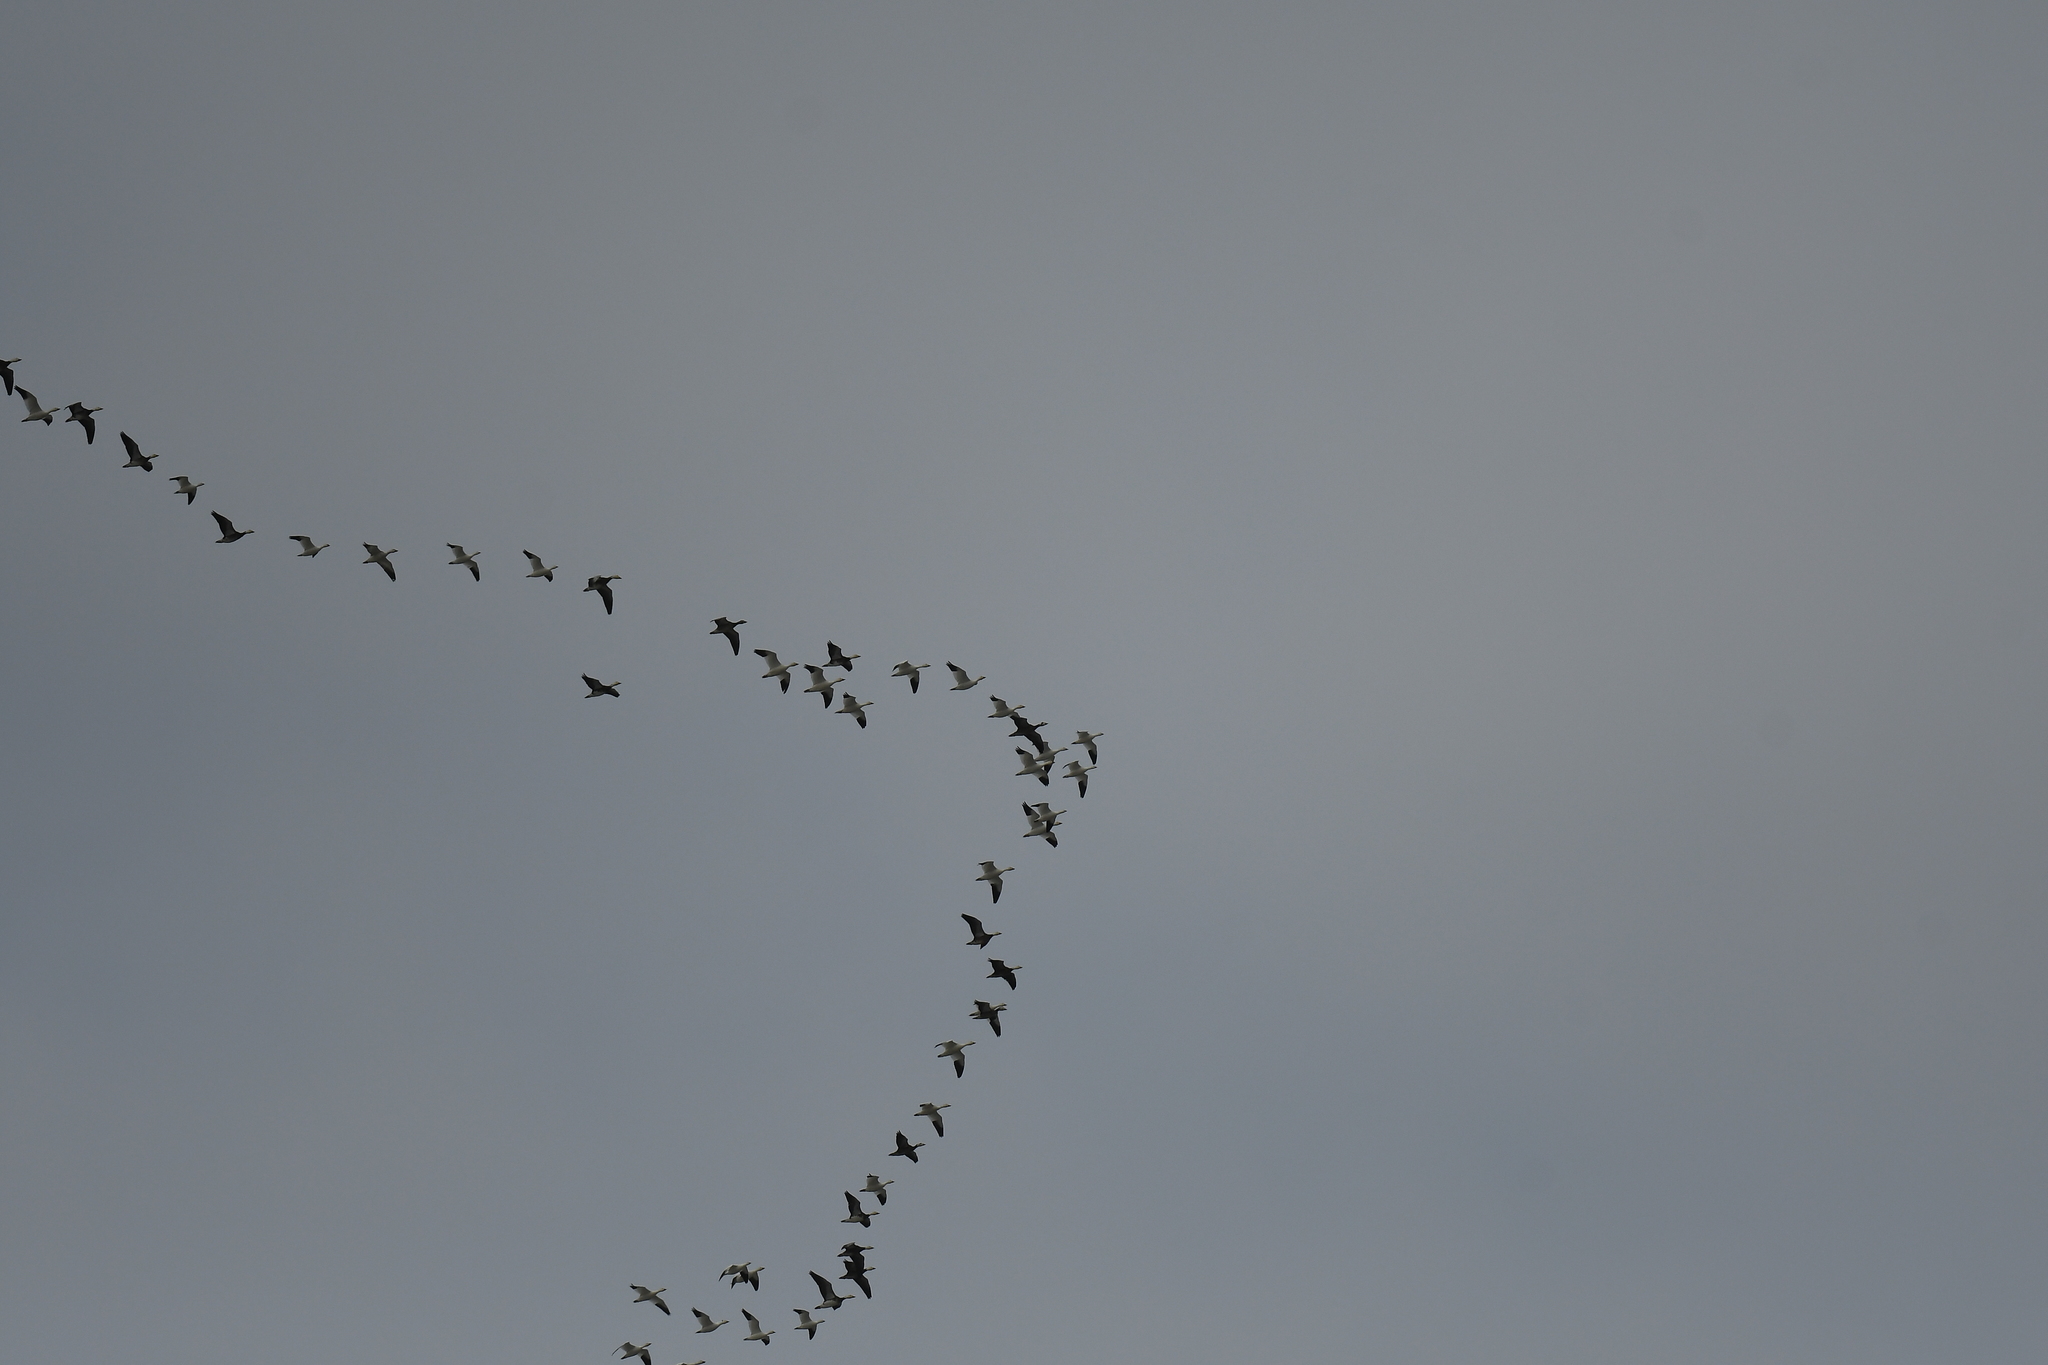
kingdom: Animalia
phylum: Chordata
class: Aves
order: Anseriformes
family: Anatidae
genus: Anser
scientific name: Anser caerulescens
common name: Snow goose
